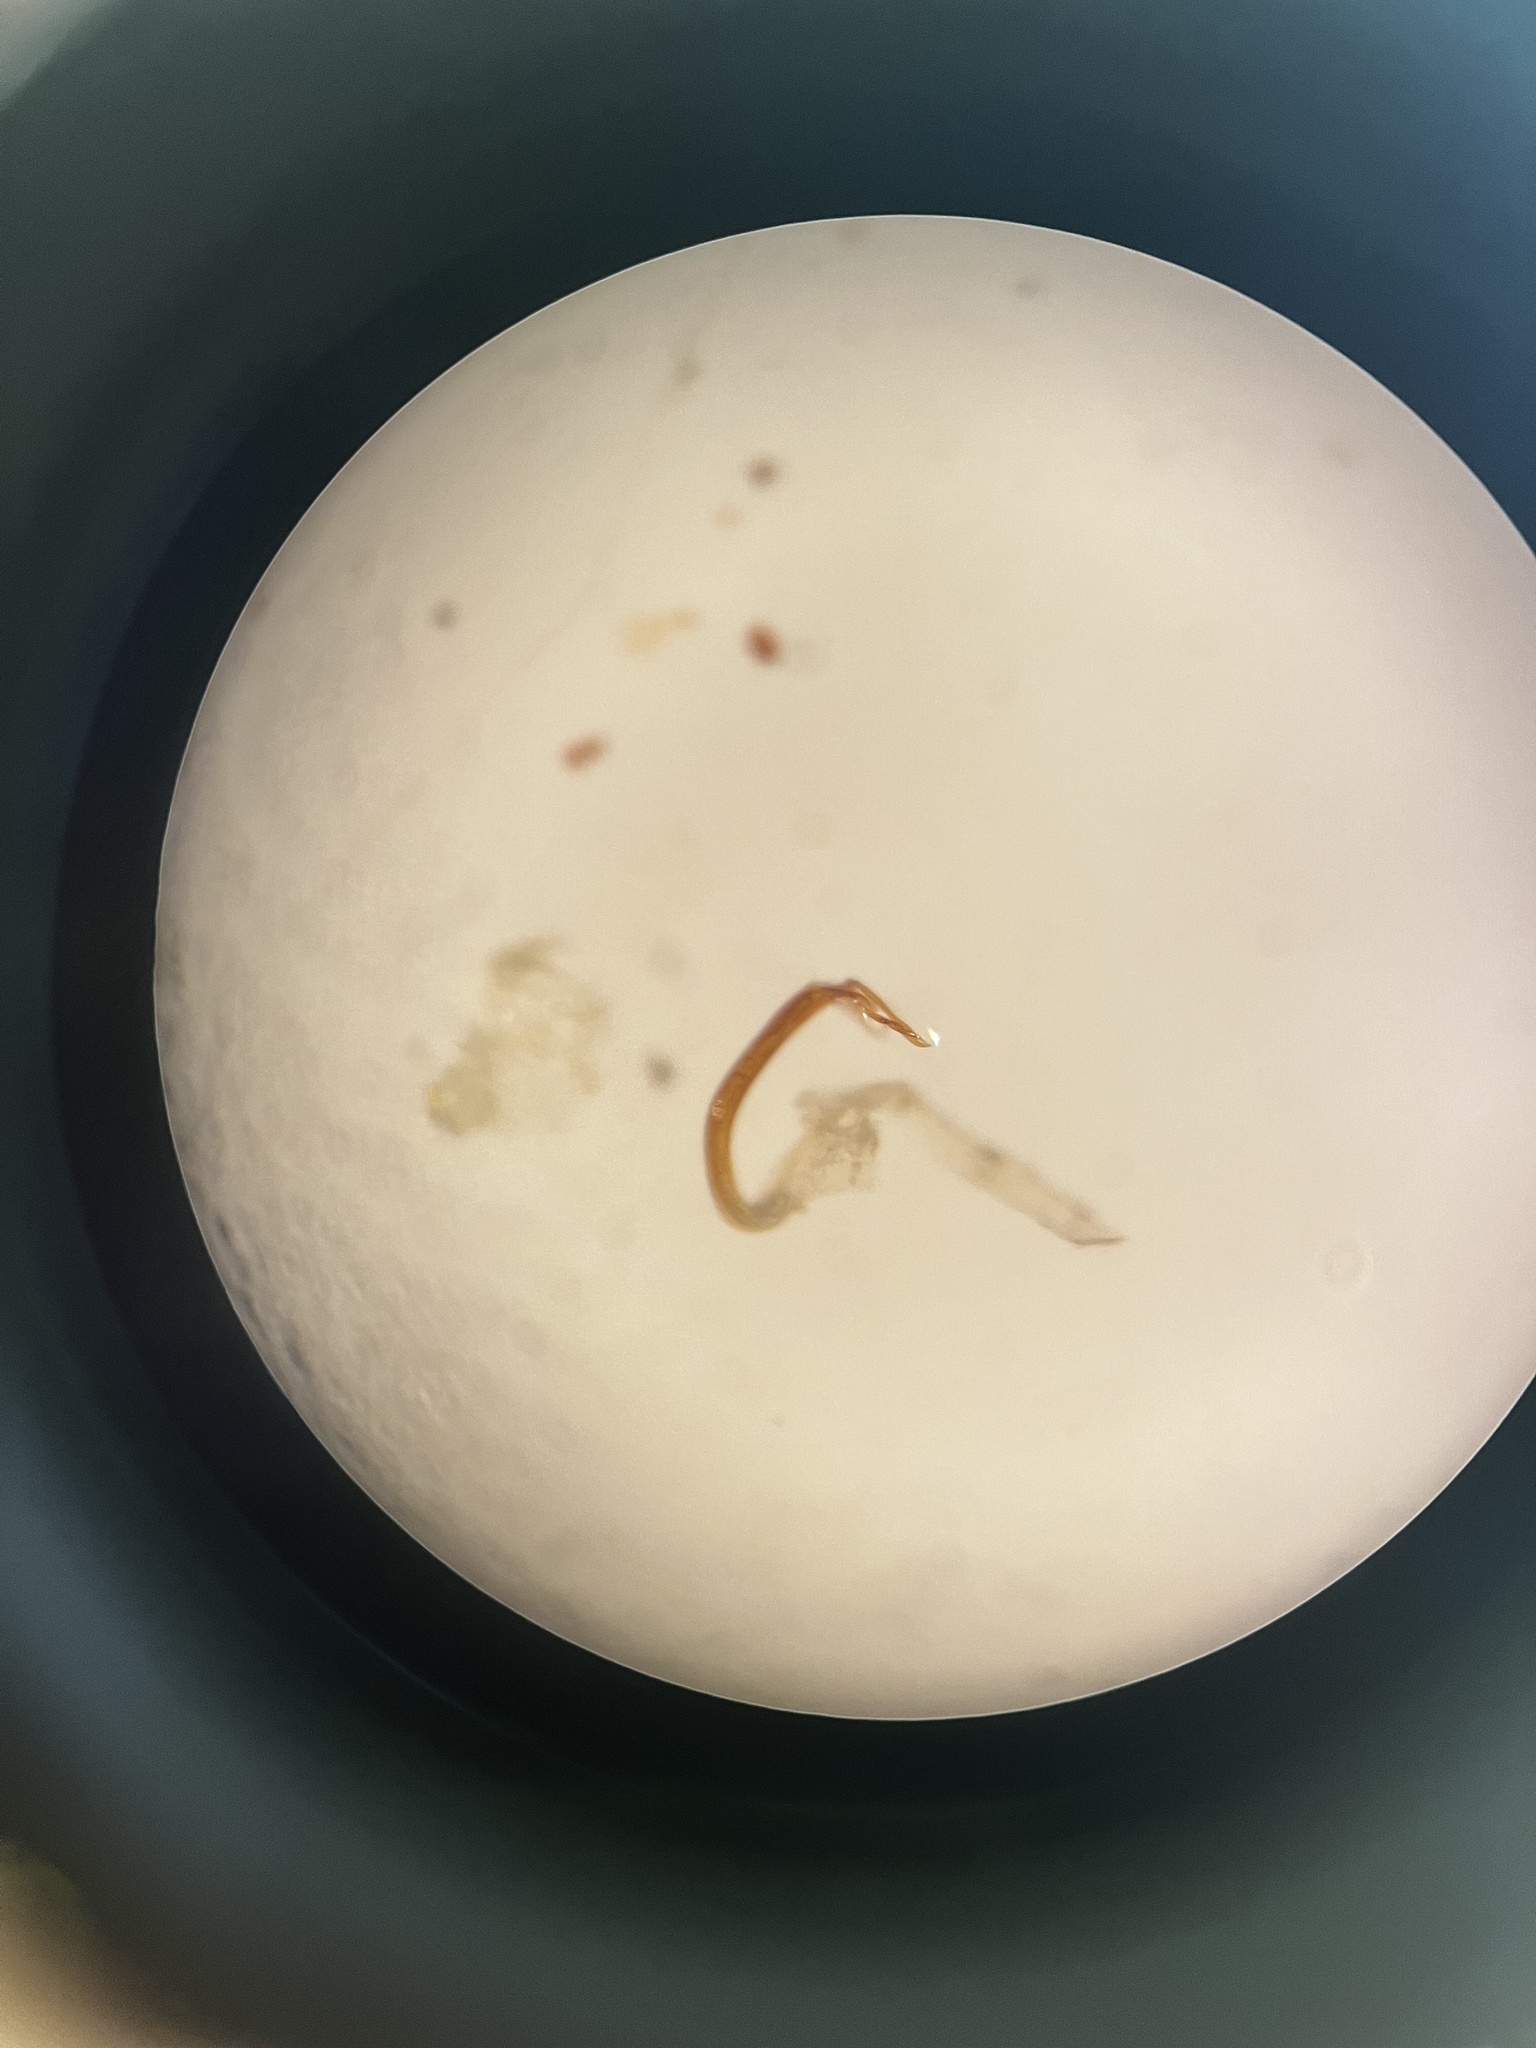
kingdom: Animalia
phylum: Arthropoda
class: Insecta
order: Hemiptera
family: Cicadellidae
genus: Eurhadina
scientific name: Eurhadina kirschbaumi
